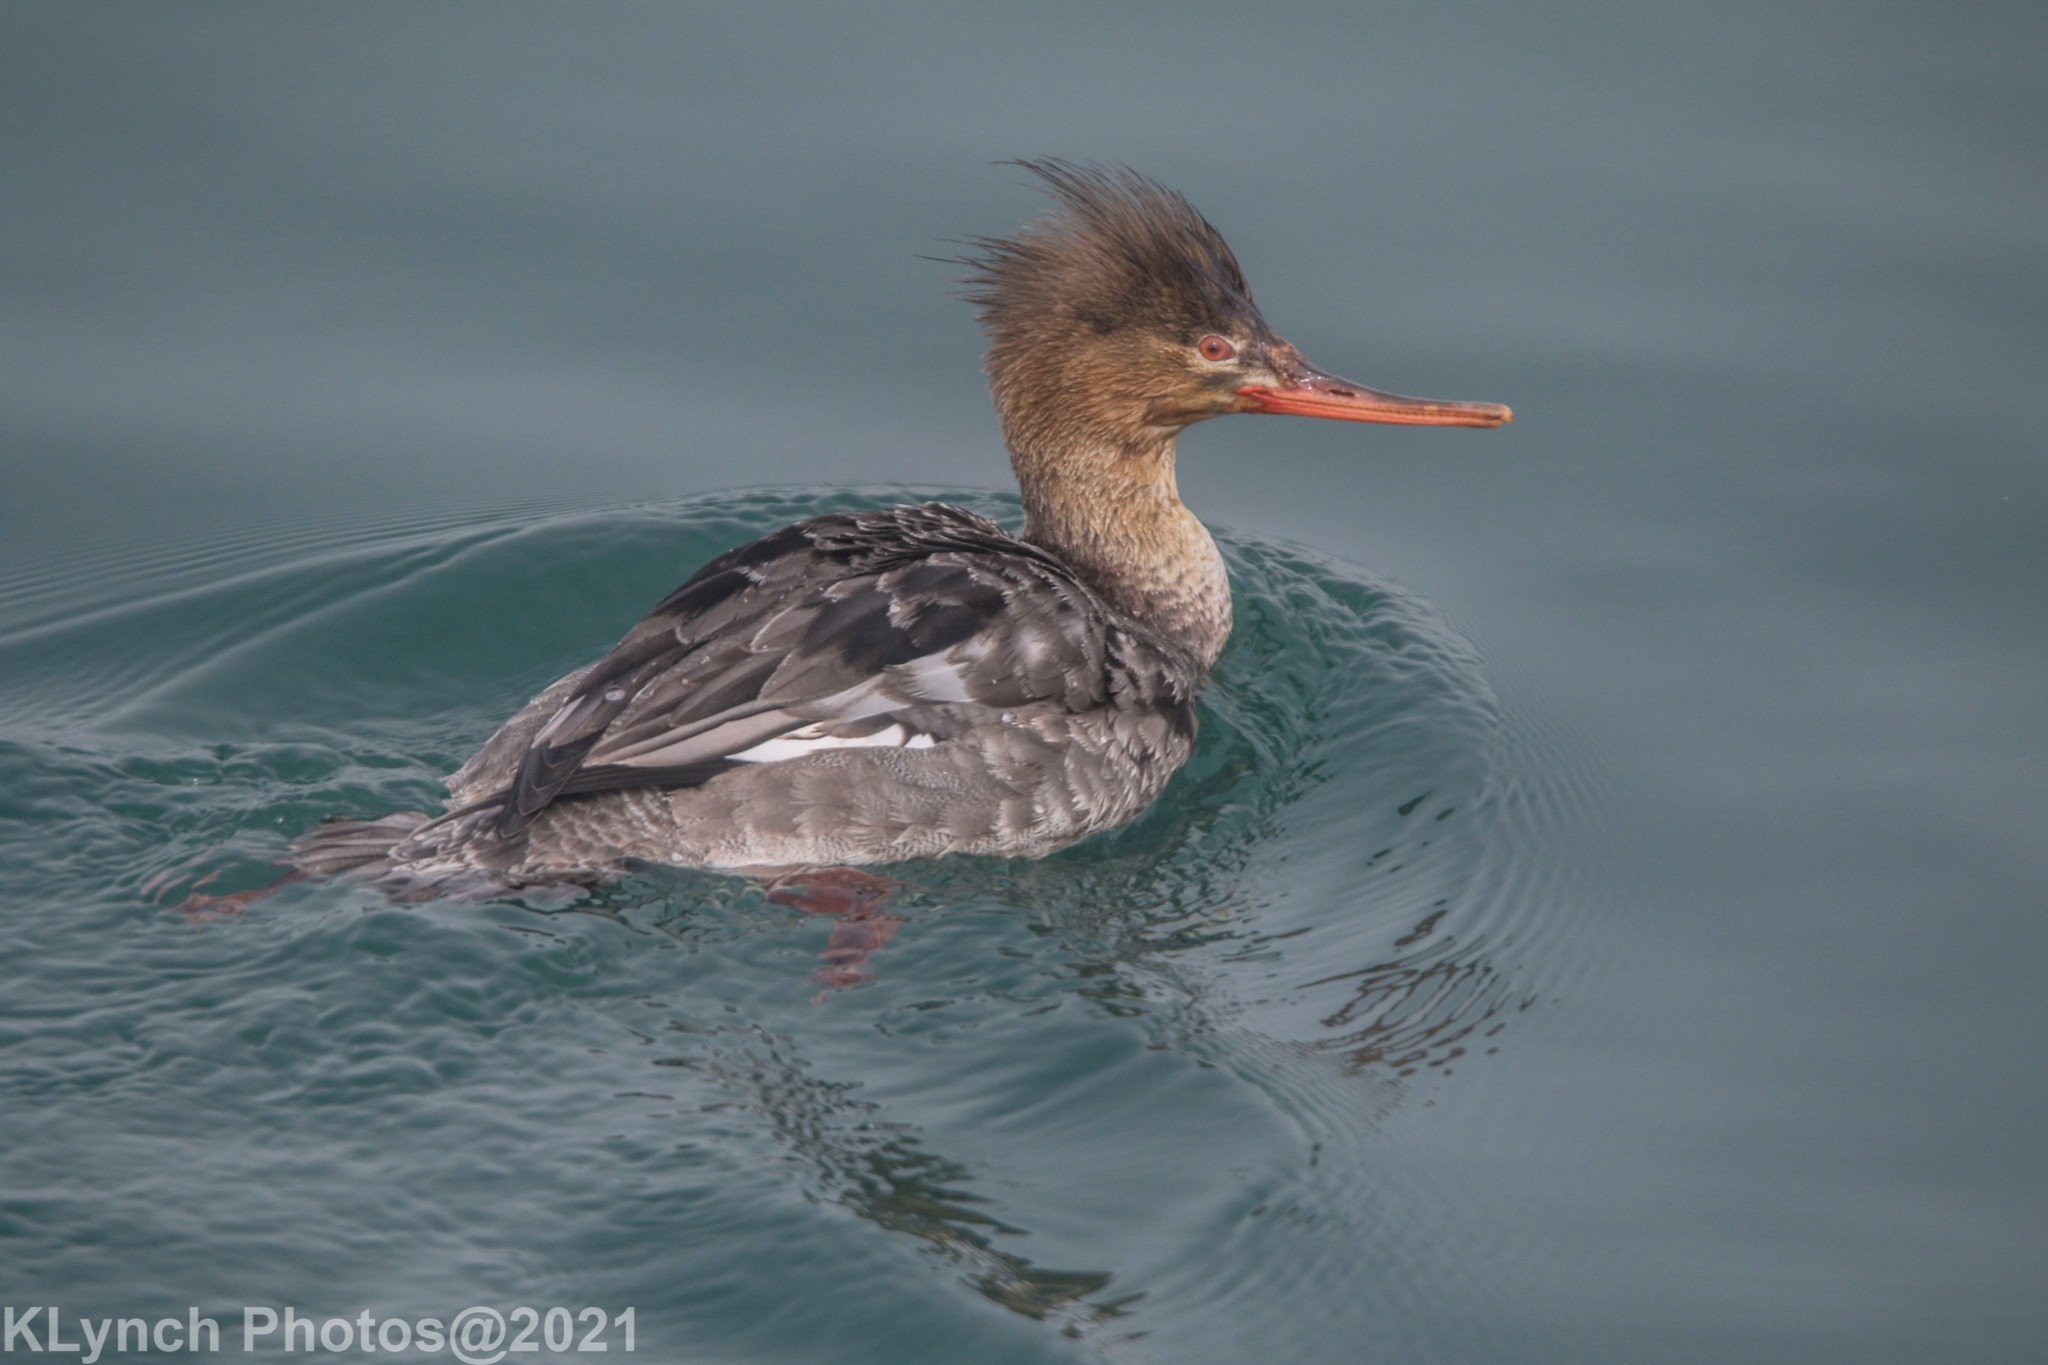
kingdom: Animalia
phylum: Chordata
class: Aves
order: Anseriformes
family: Anatidae
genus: Mergus
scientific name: Mergus serrator
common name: Red-breasted merganser
